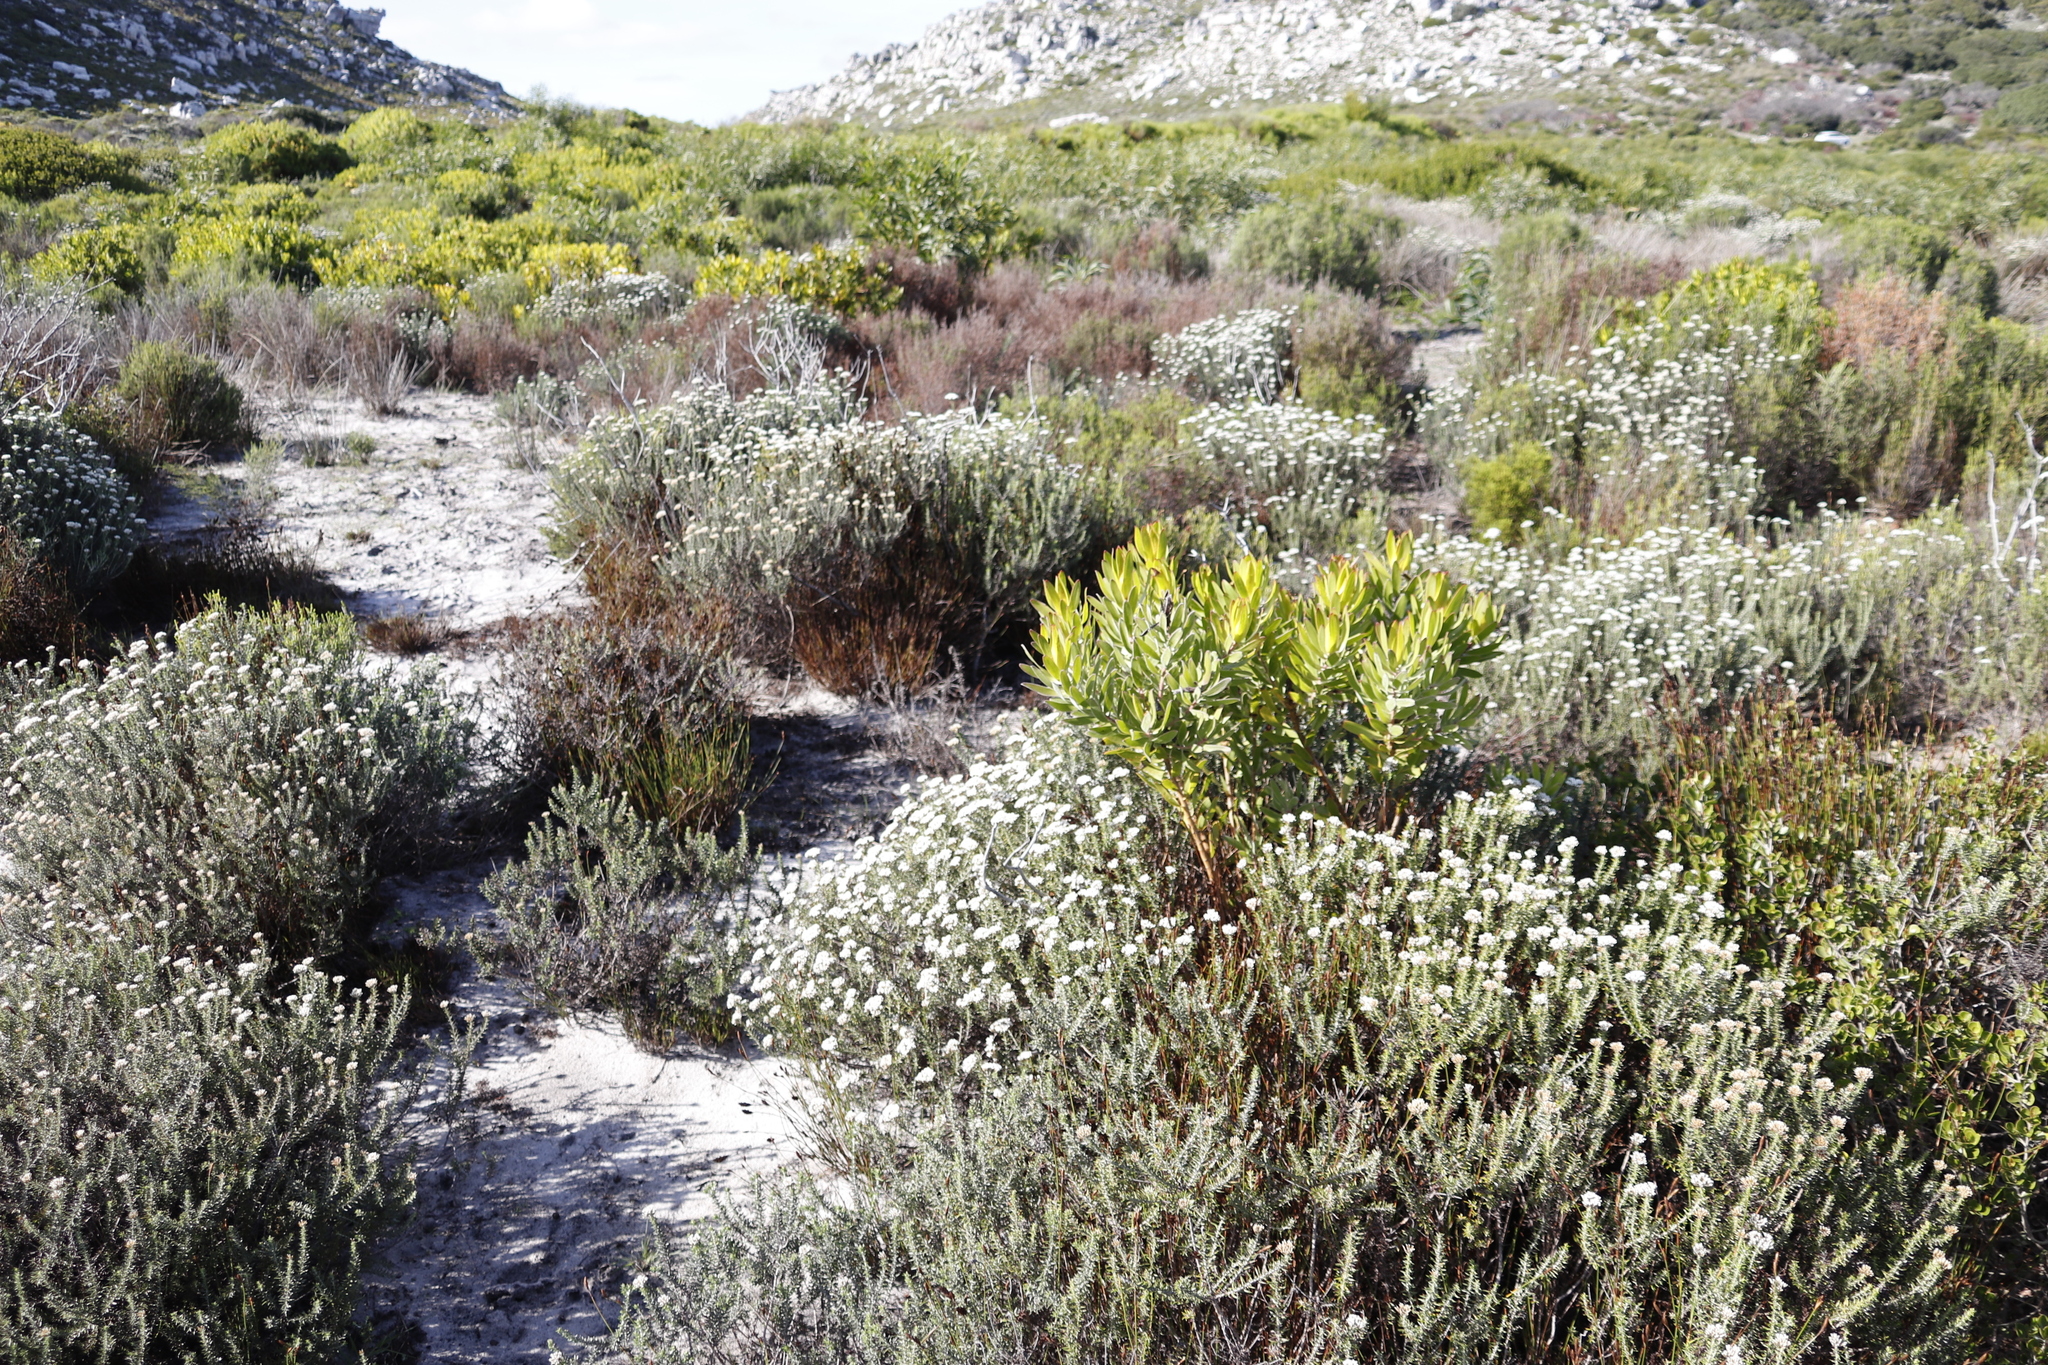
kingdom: Plantae
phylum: Tracheophyta
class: Magnoliopsida
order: Proteales
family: Proteaceae
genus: Leucadendron
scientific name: Leucadendron laureolum
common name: Golden sunshinebush
